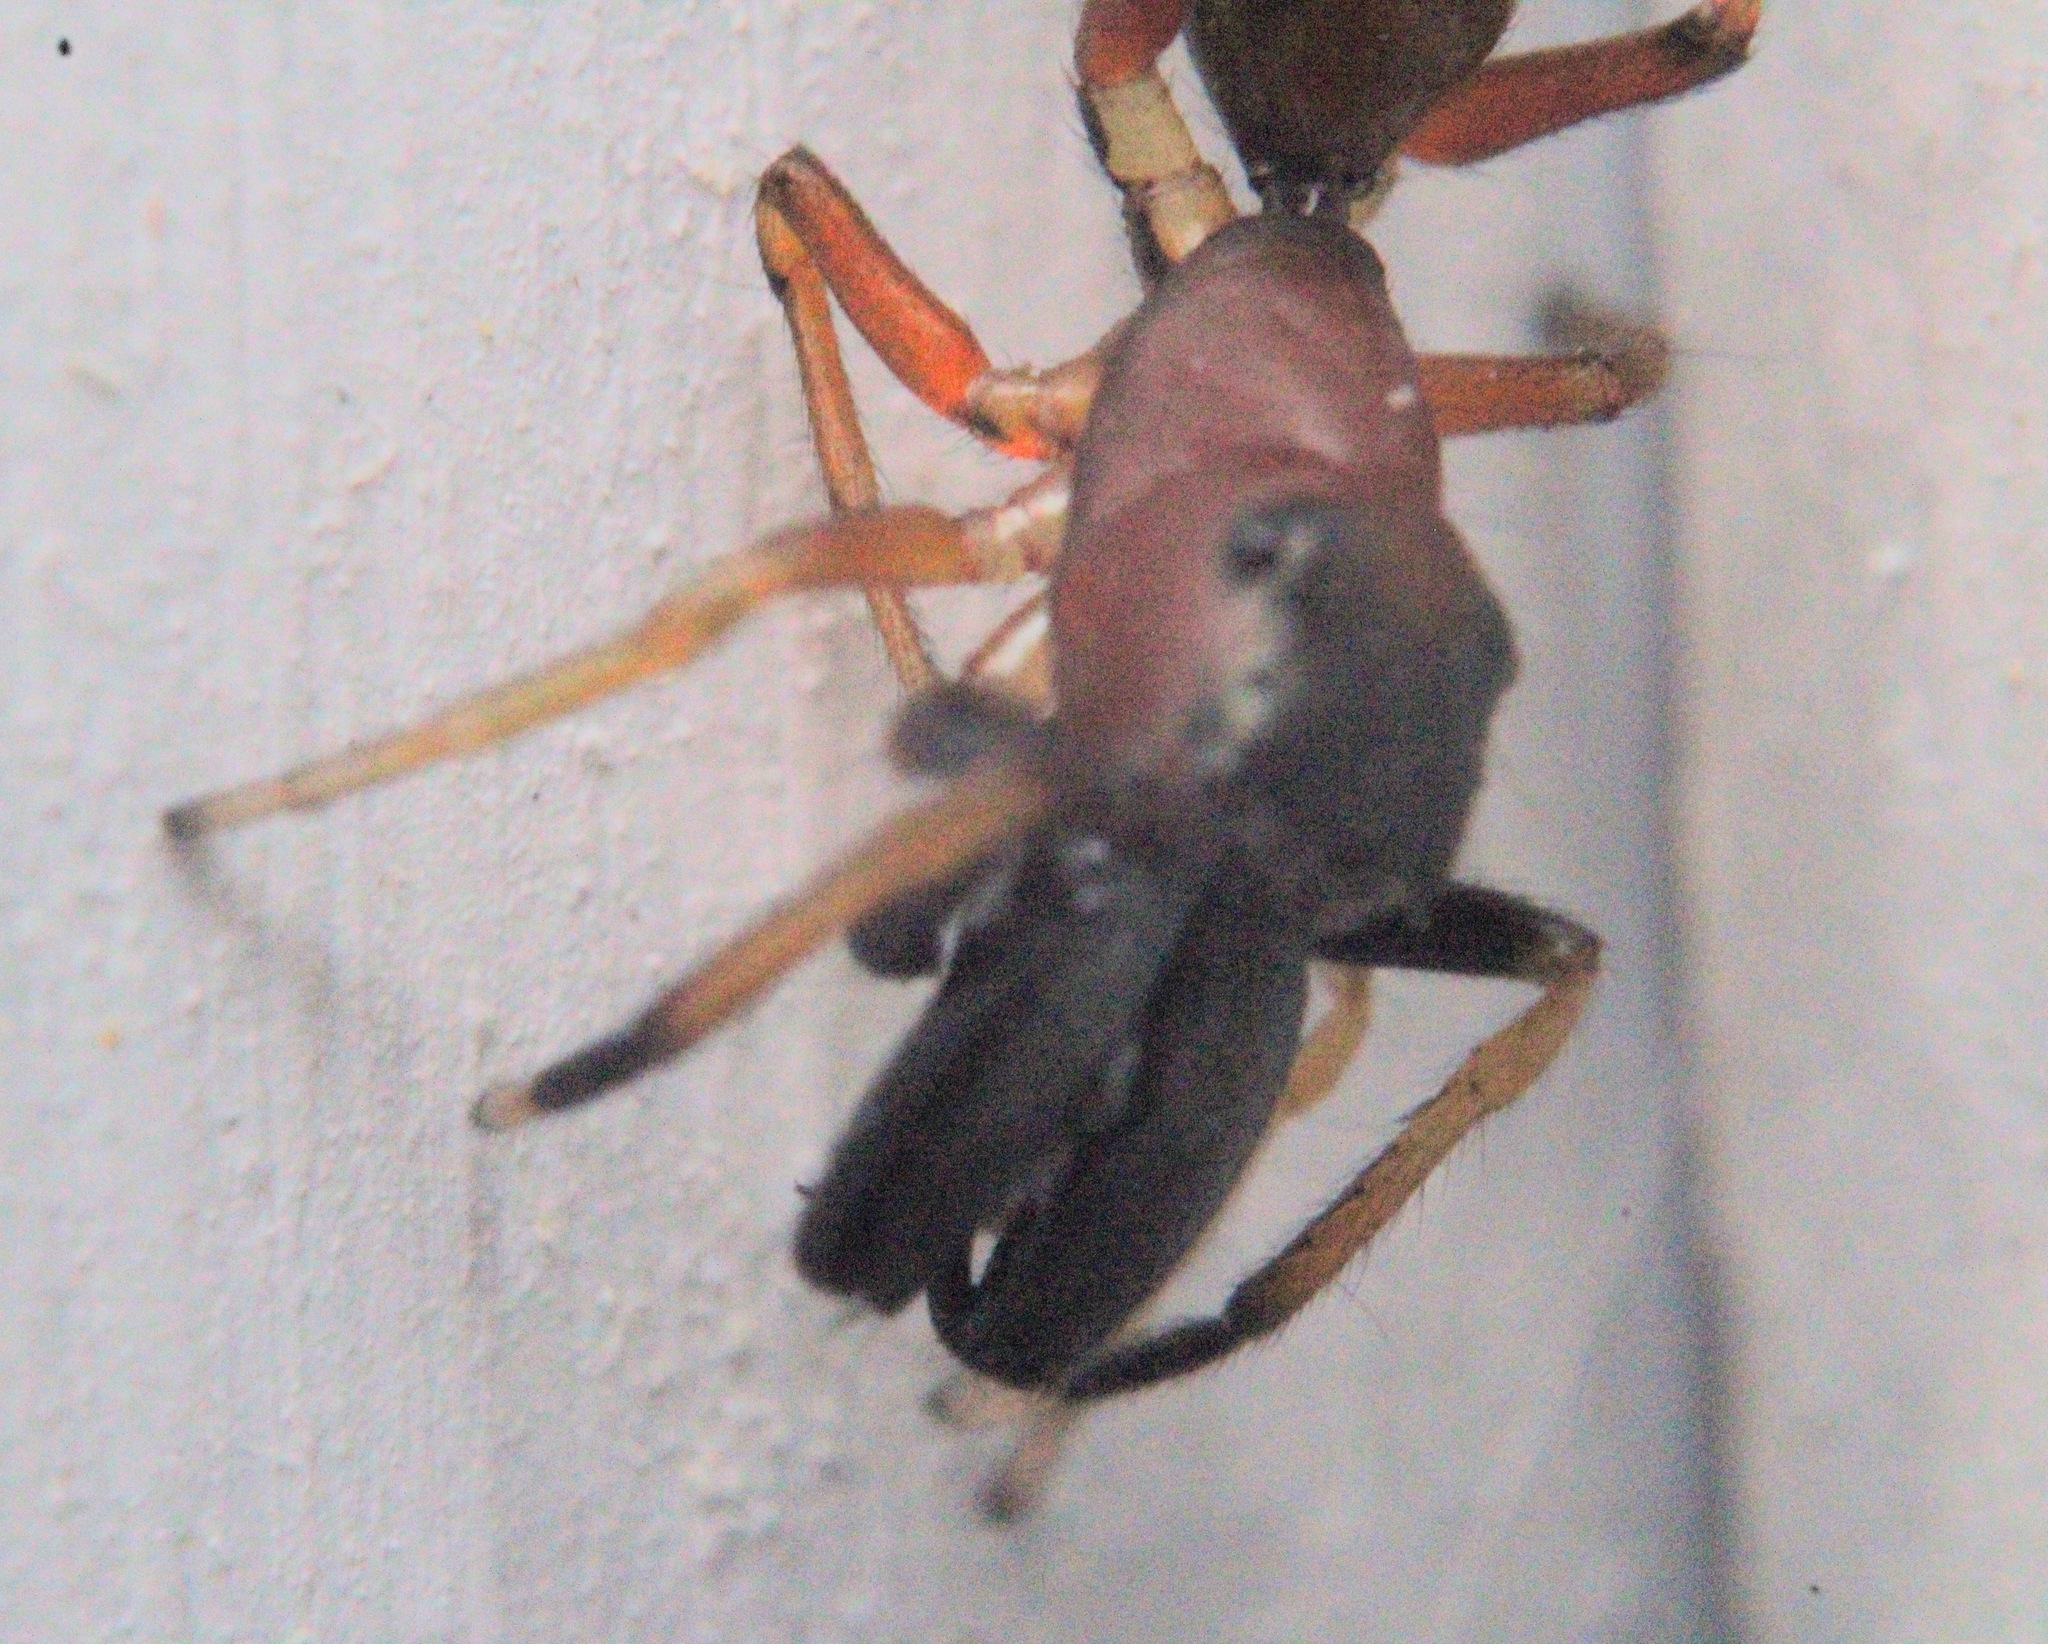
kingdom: Animalia
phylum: Arthropoda
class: Arachnida
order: Araneae
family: Salticidae
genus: Myrmarachne
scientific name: Myrmarachne formicaria
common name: Ant mimic jumping spider
